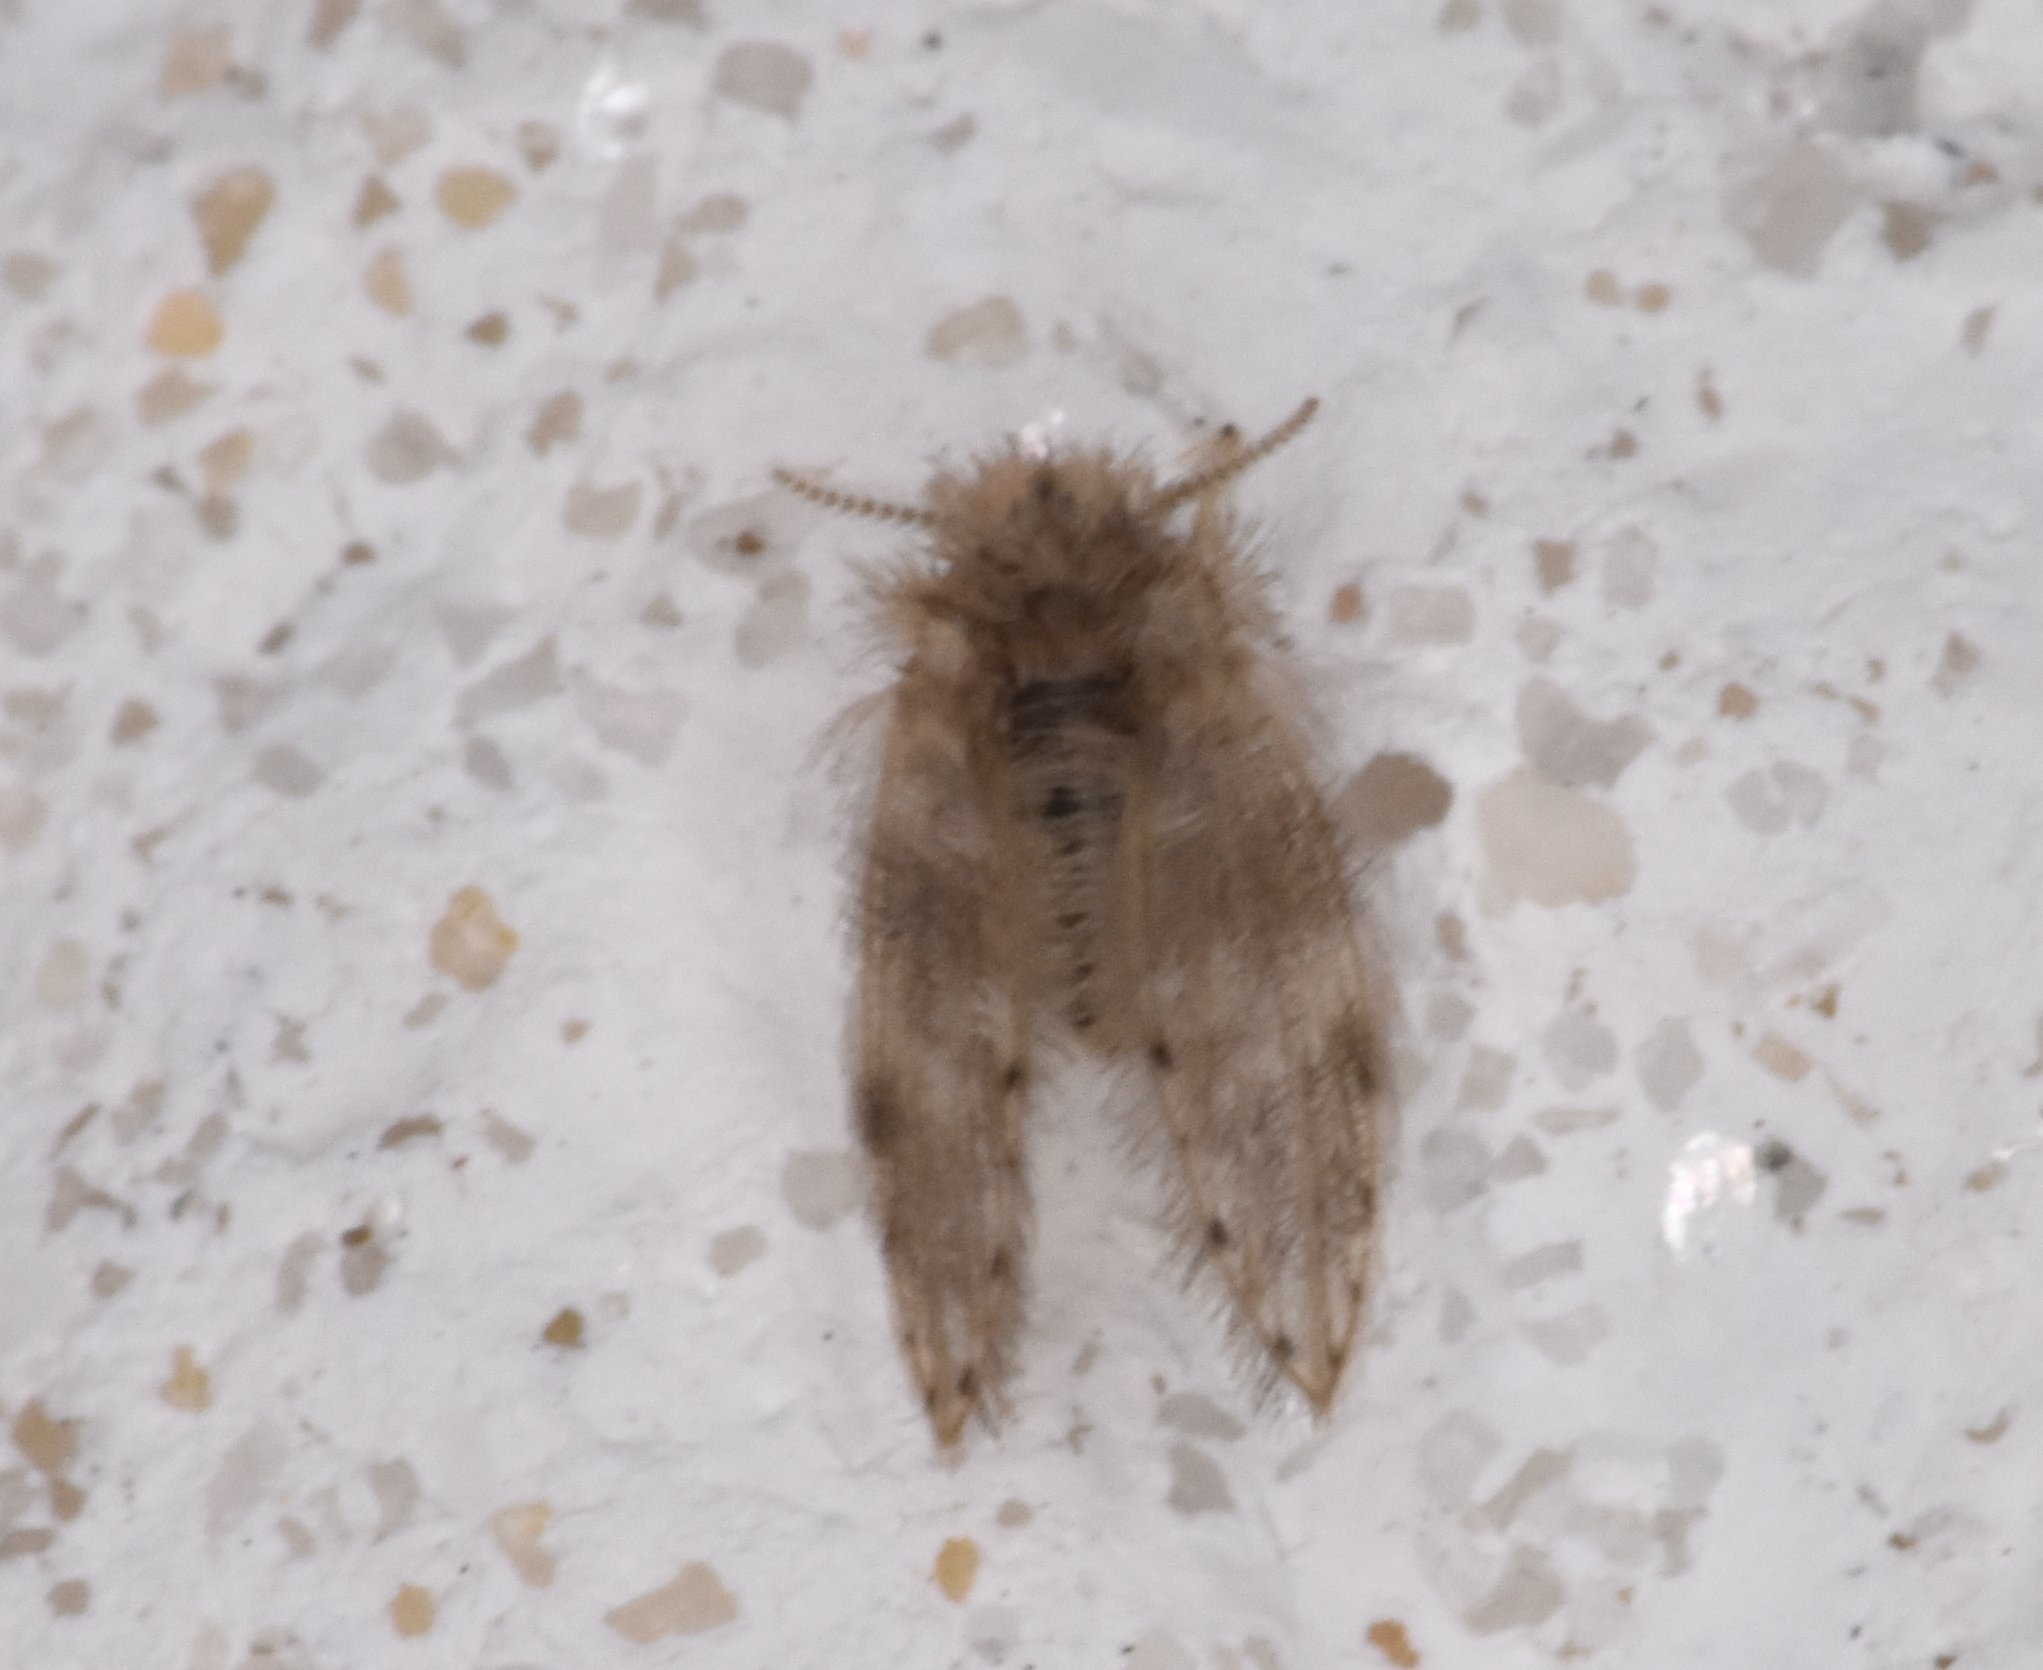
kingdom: Animalia
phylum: Arthropoda
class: Insecta
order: Diptera
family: Psychodidae
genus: Psychoda
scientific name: Psychoda alternata
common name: Moth fly
